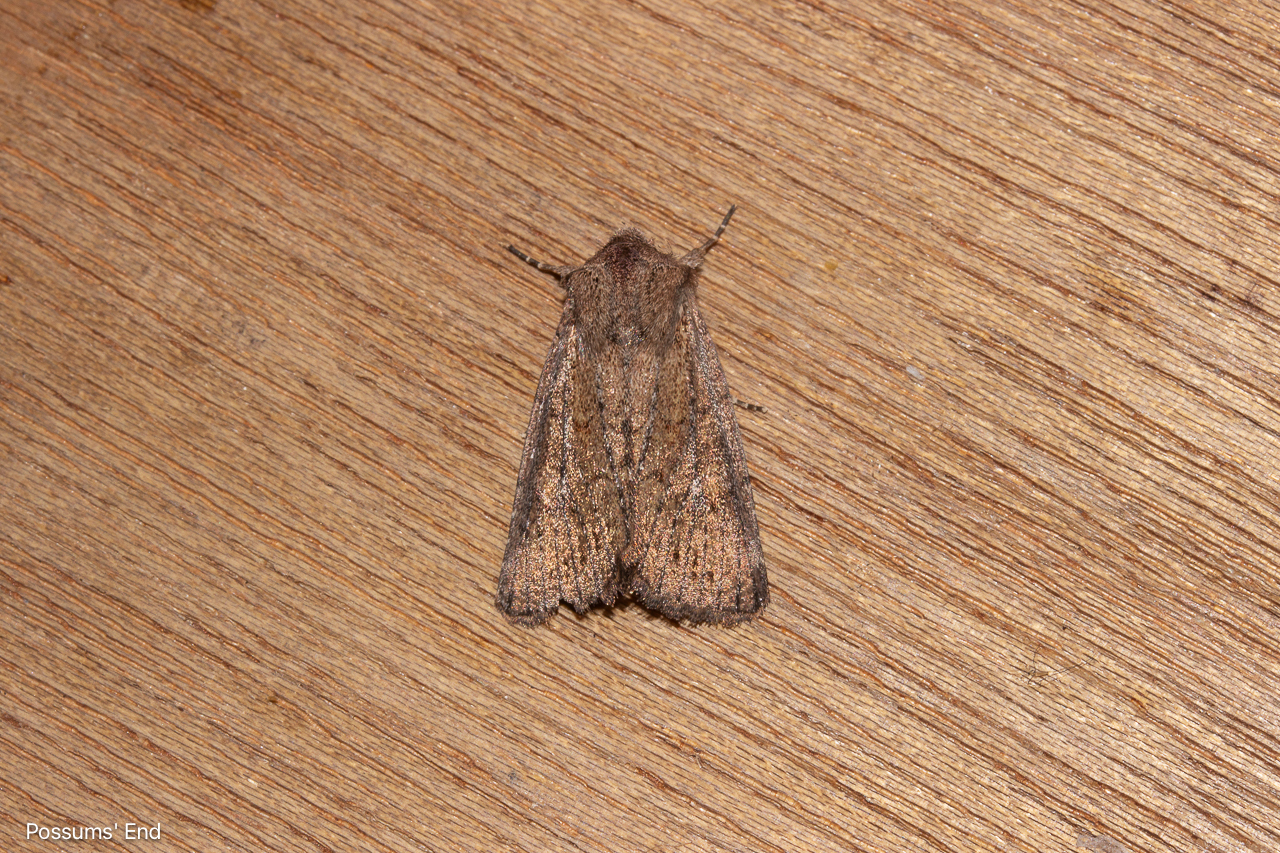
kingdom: Animalia
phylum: Arthropoda
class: Insecta
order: Lepidoptera
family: Noctuidae
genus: Ichneutica
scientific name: Ichneutica
